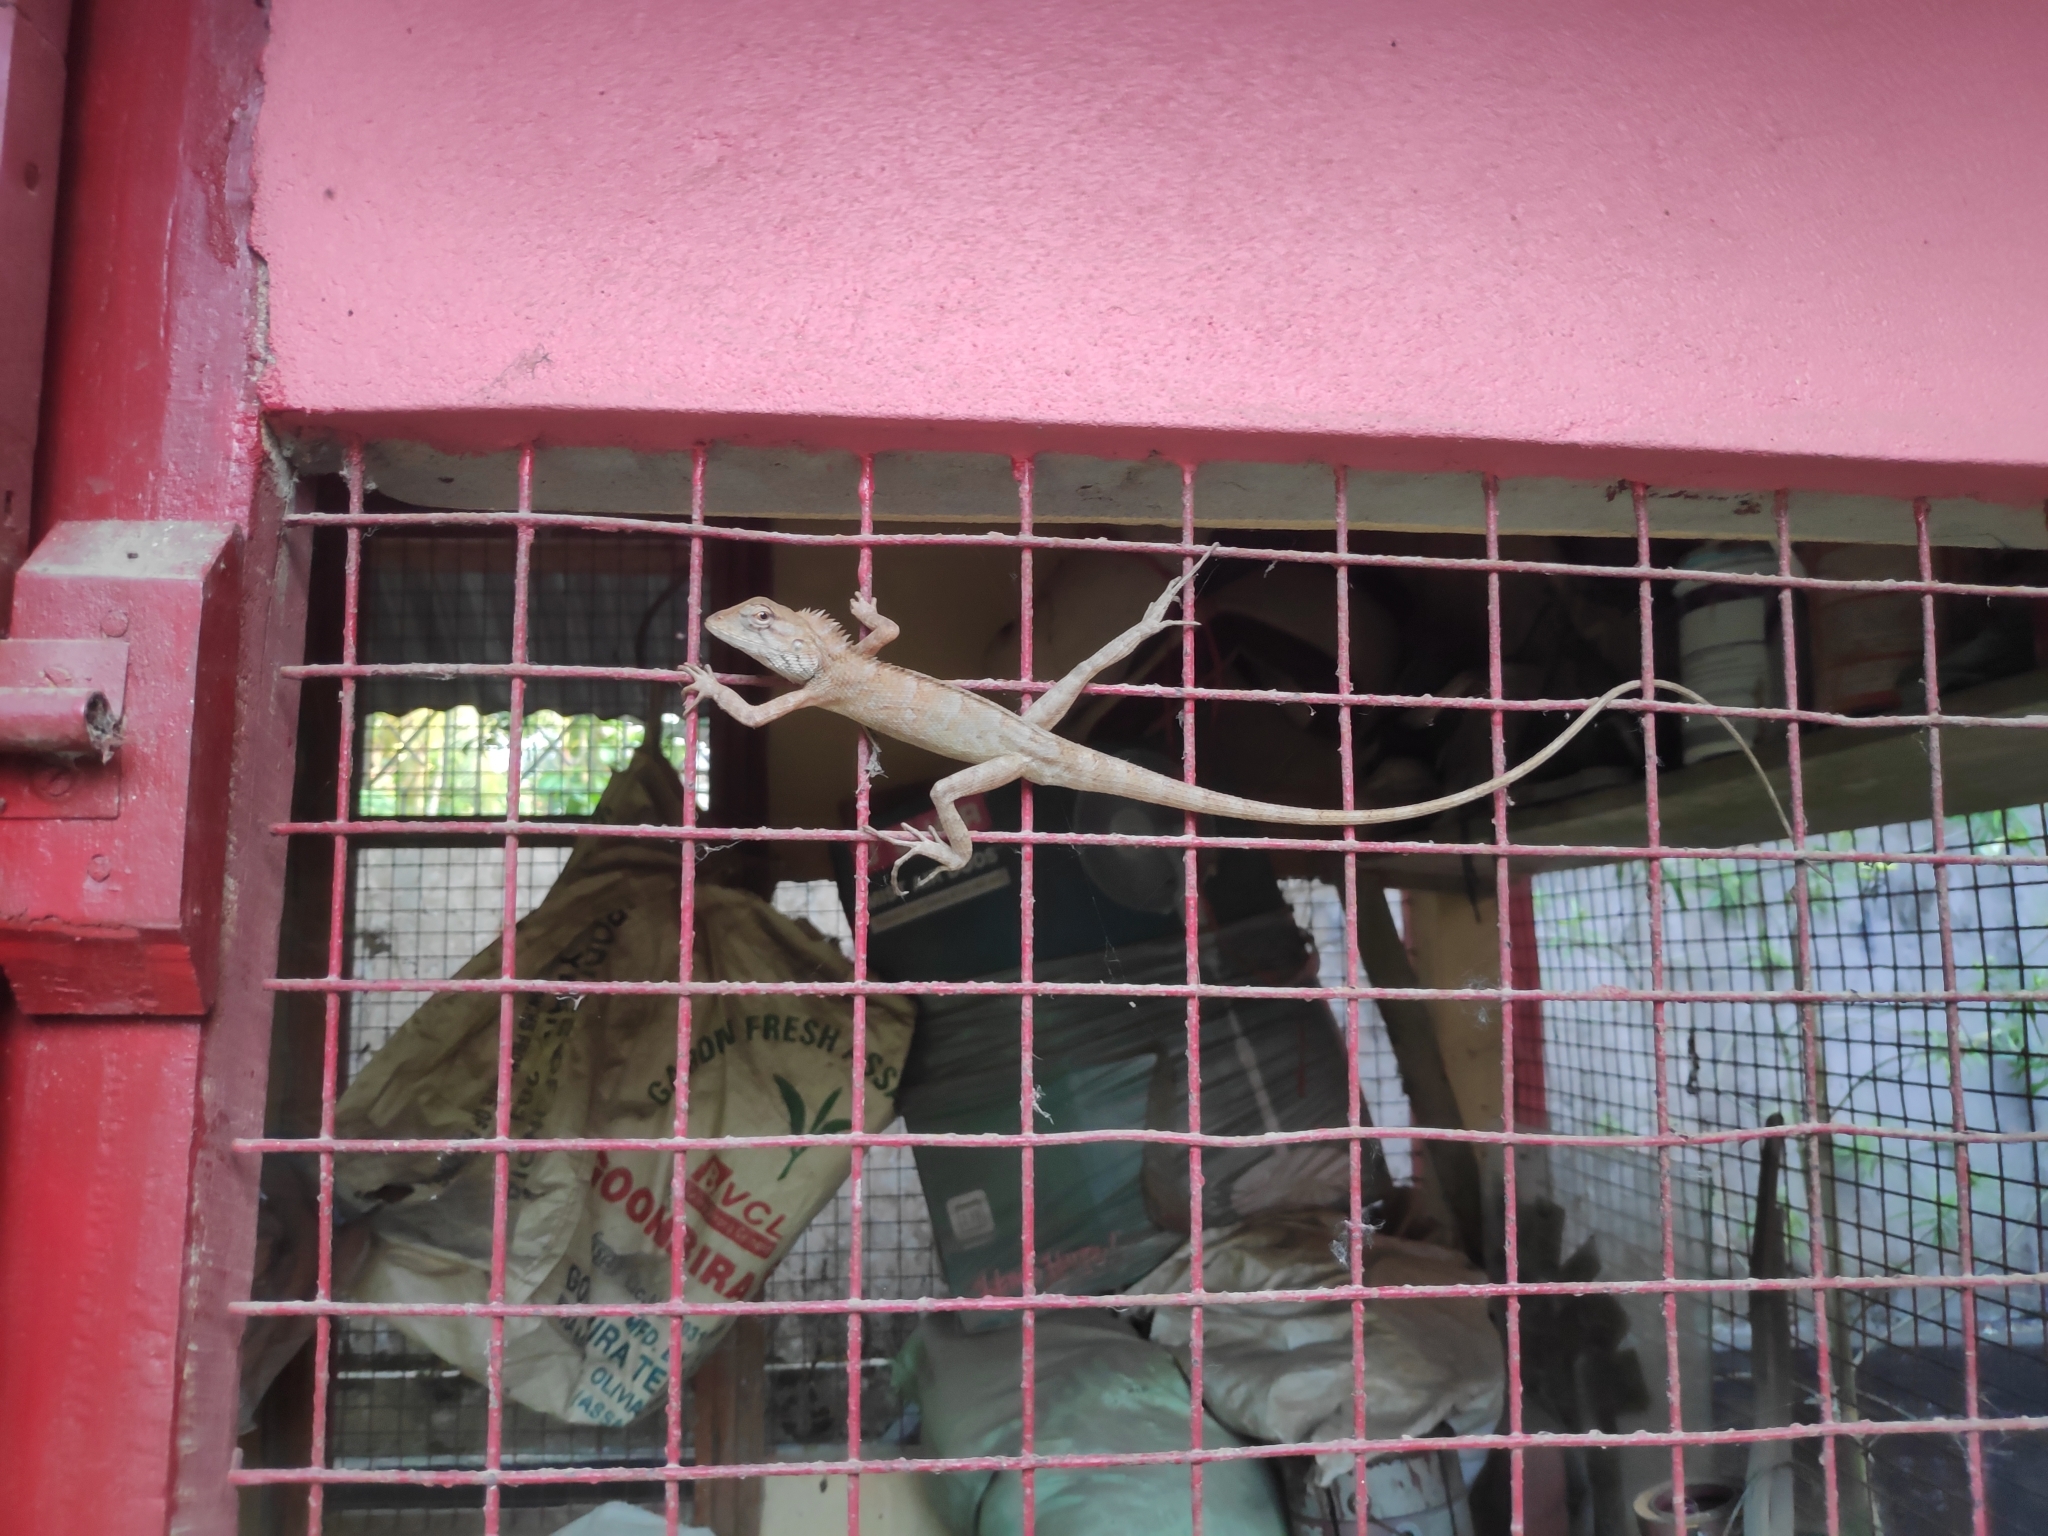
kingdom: Animalia
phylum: Chordata
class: Squamata
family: Agamidae
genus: Calotes
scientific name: Calotes versicolor
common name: Oriental garden lizard
